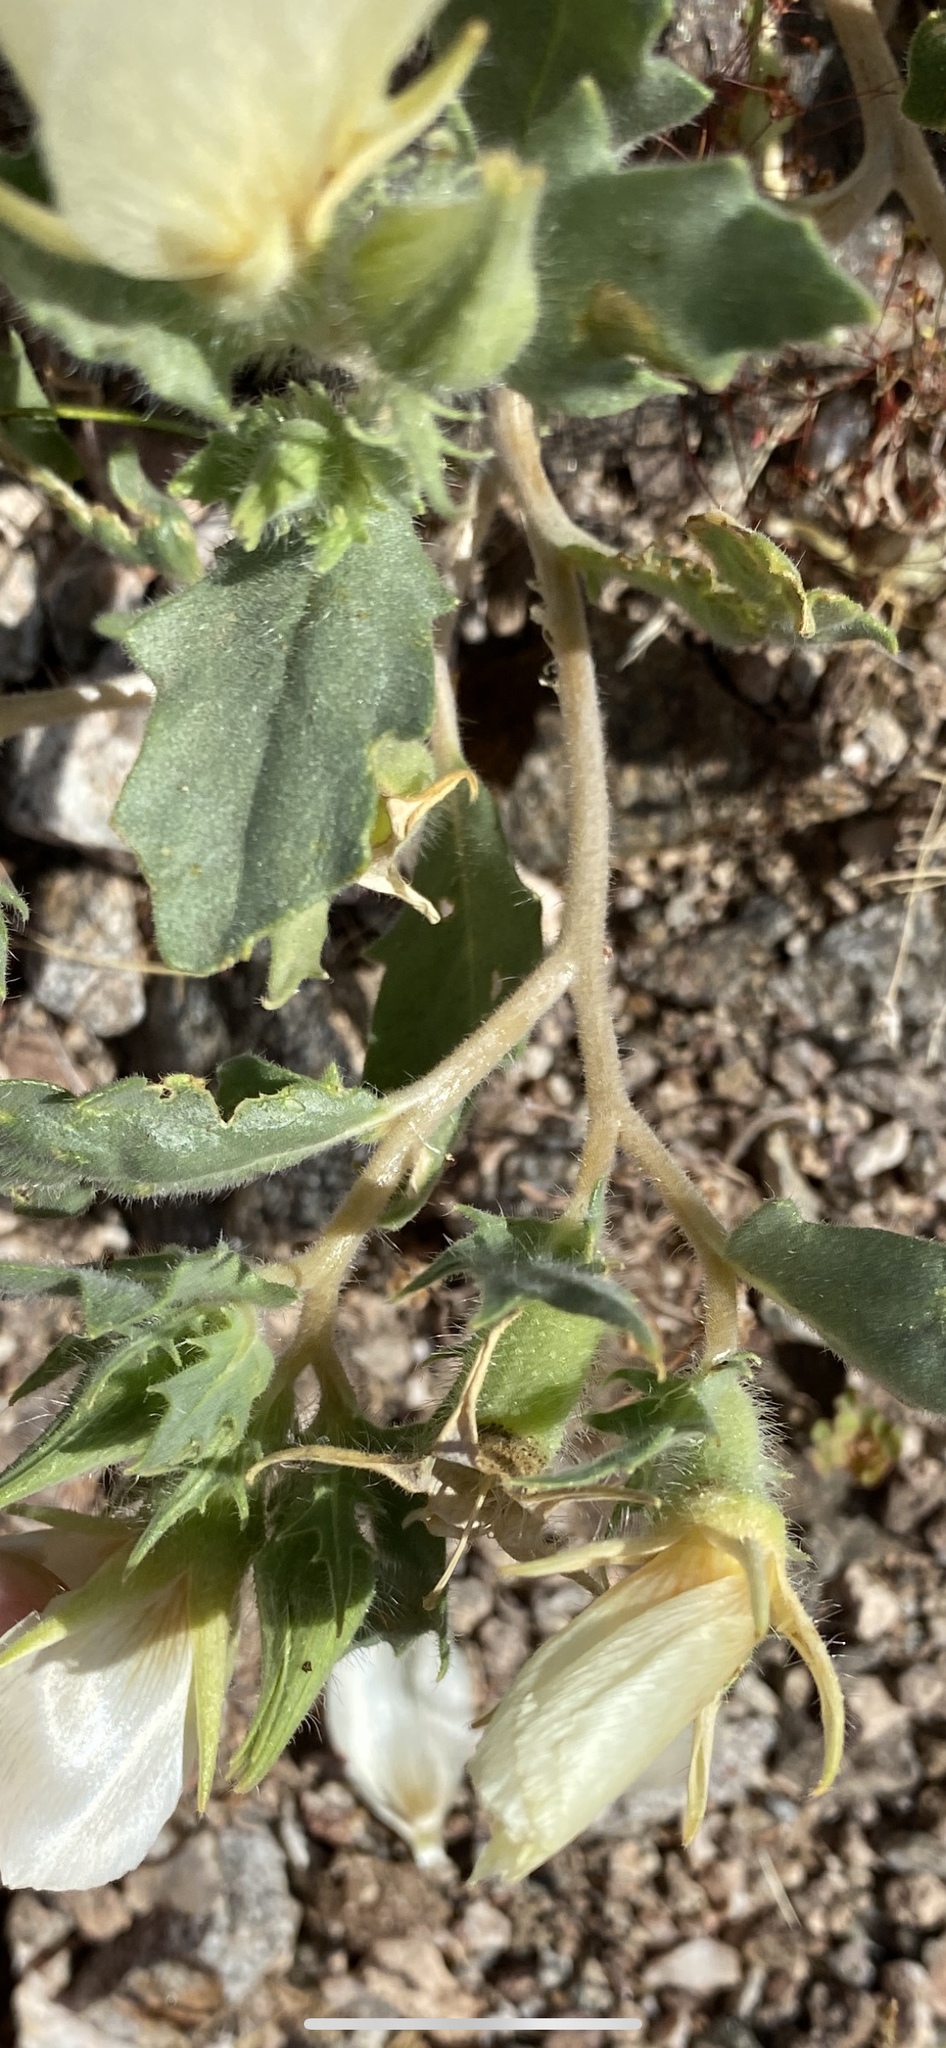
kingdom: Plantae
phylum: Tracheophyta
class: Magnoliopsida
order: Cornales
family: Loasaceae
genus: Mentzelia
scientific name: Mentzelia tricuspis
